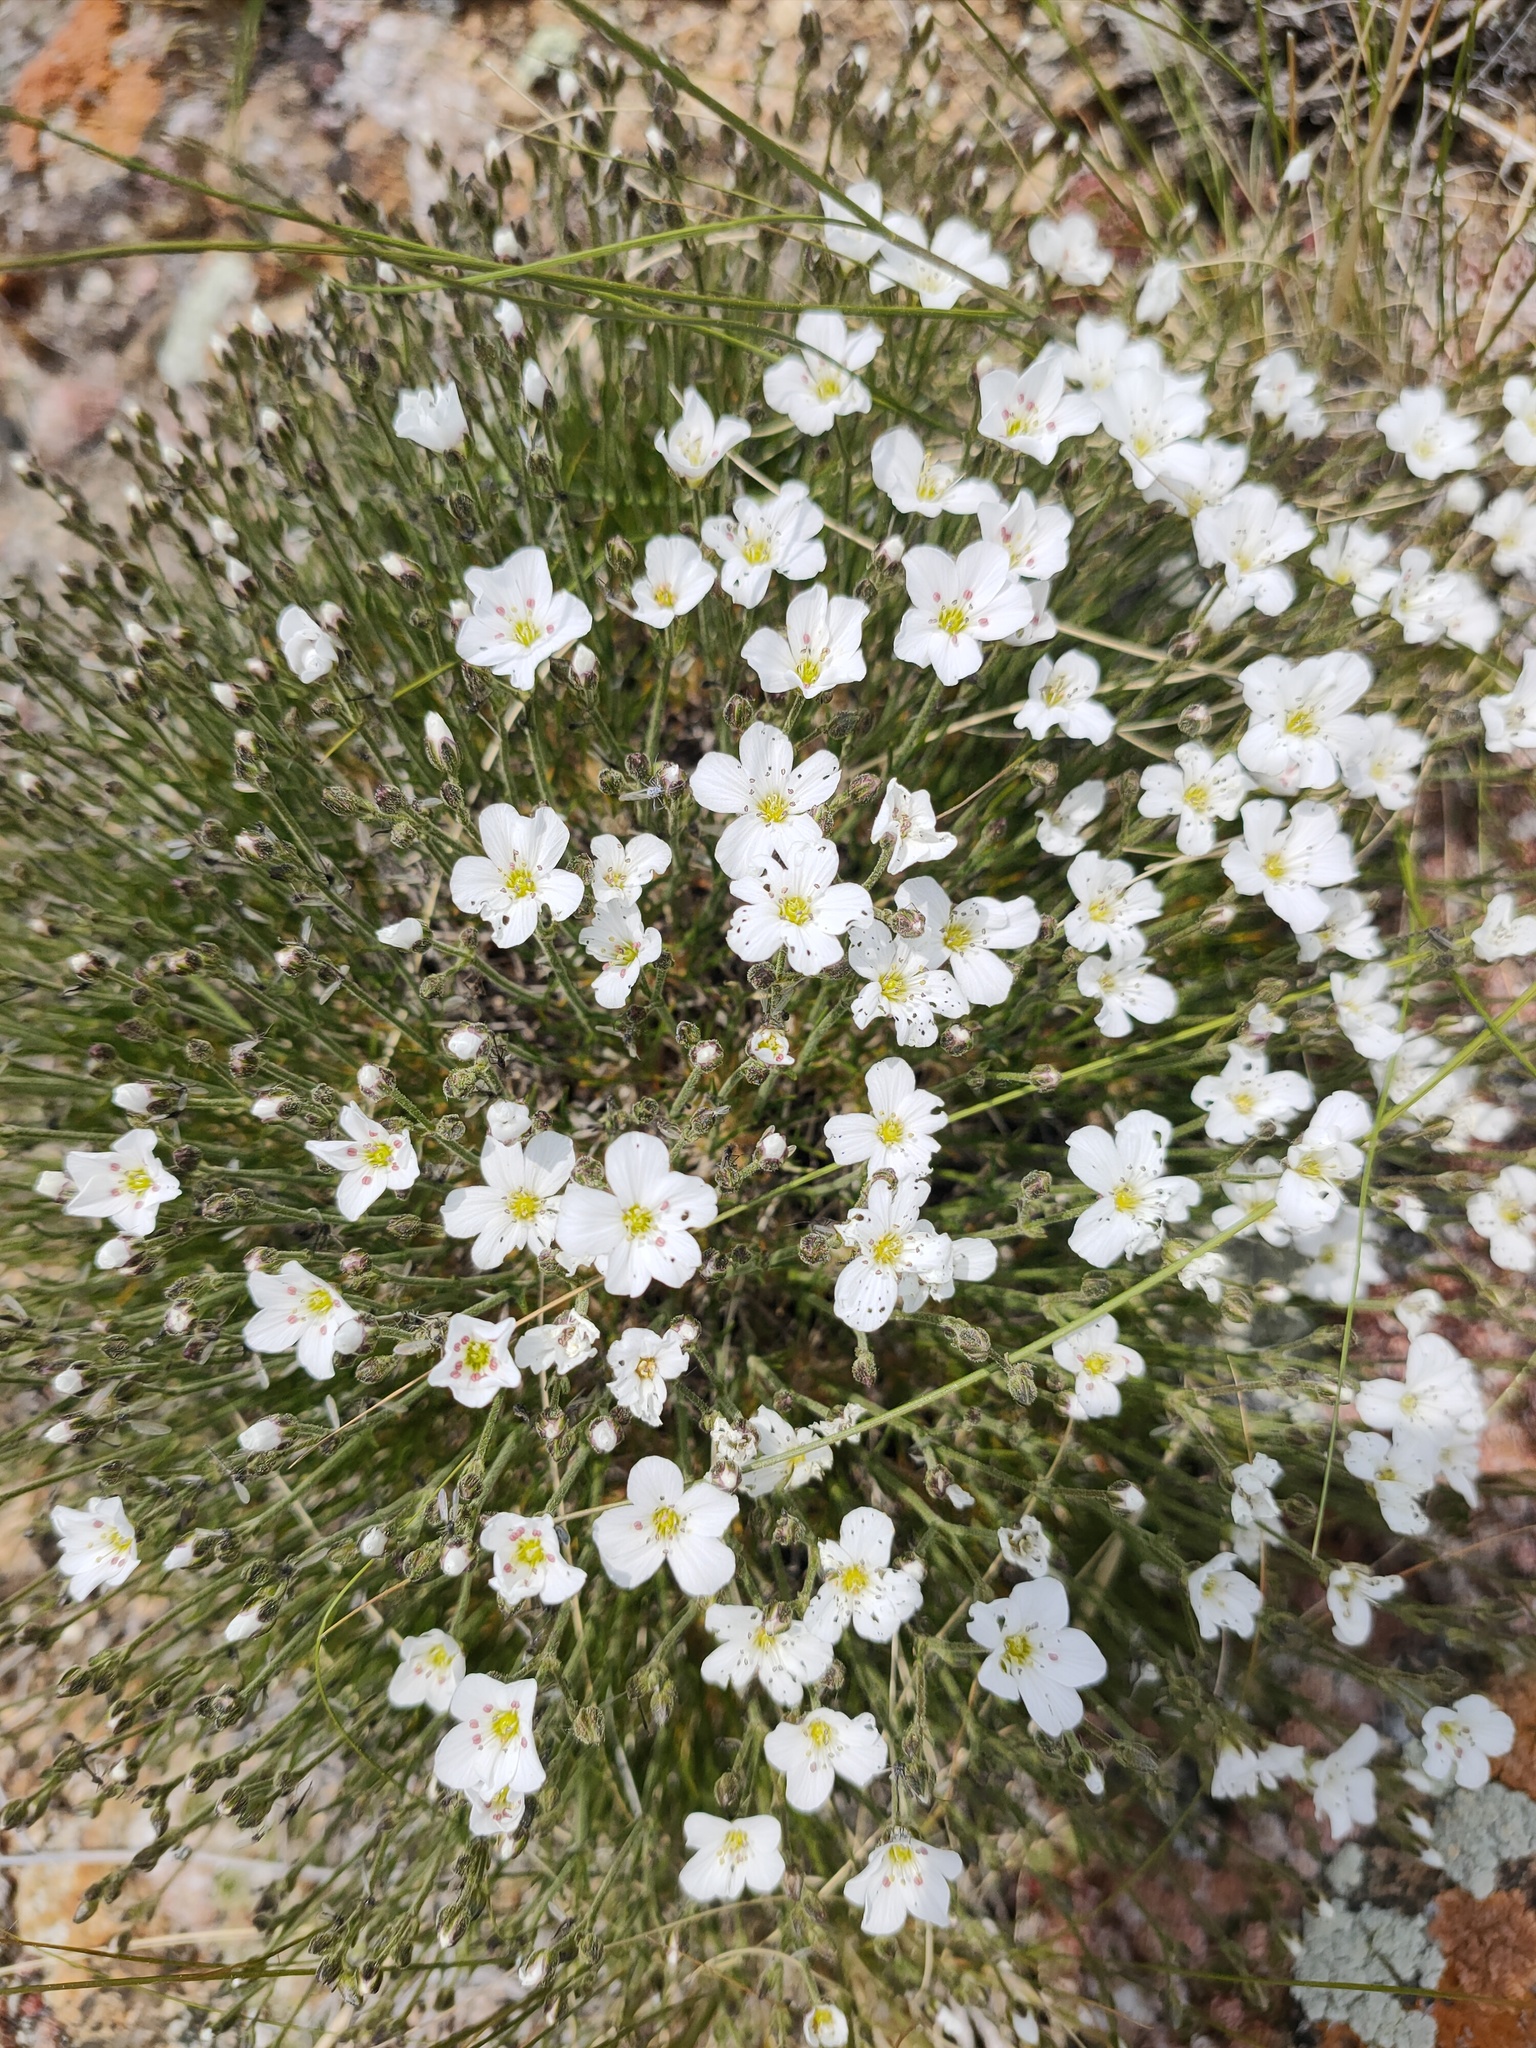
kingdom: Plantae
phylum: Tracheophyta
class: Magnoliopsida
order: Caryophyllales
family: Caryophyllaceae
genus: Eremogone
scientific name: Eremogone meyeri
